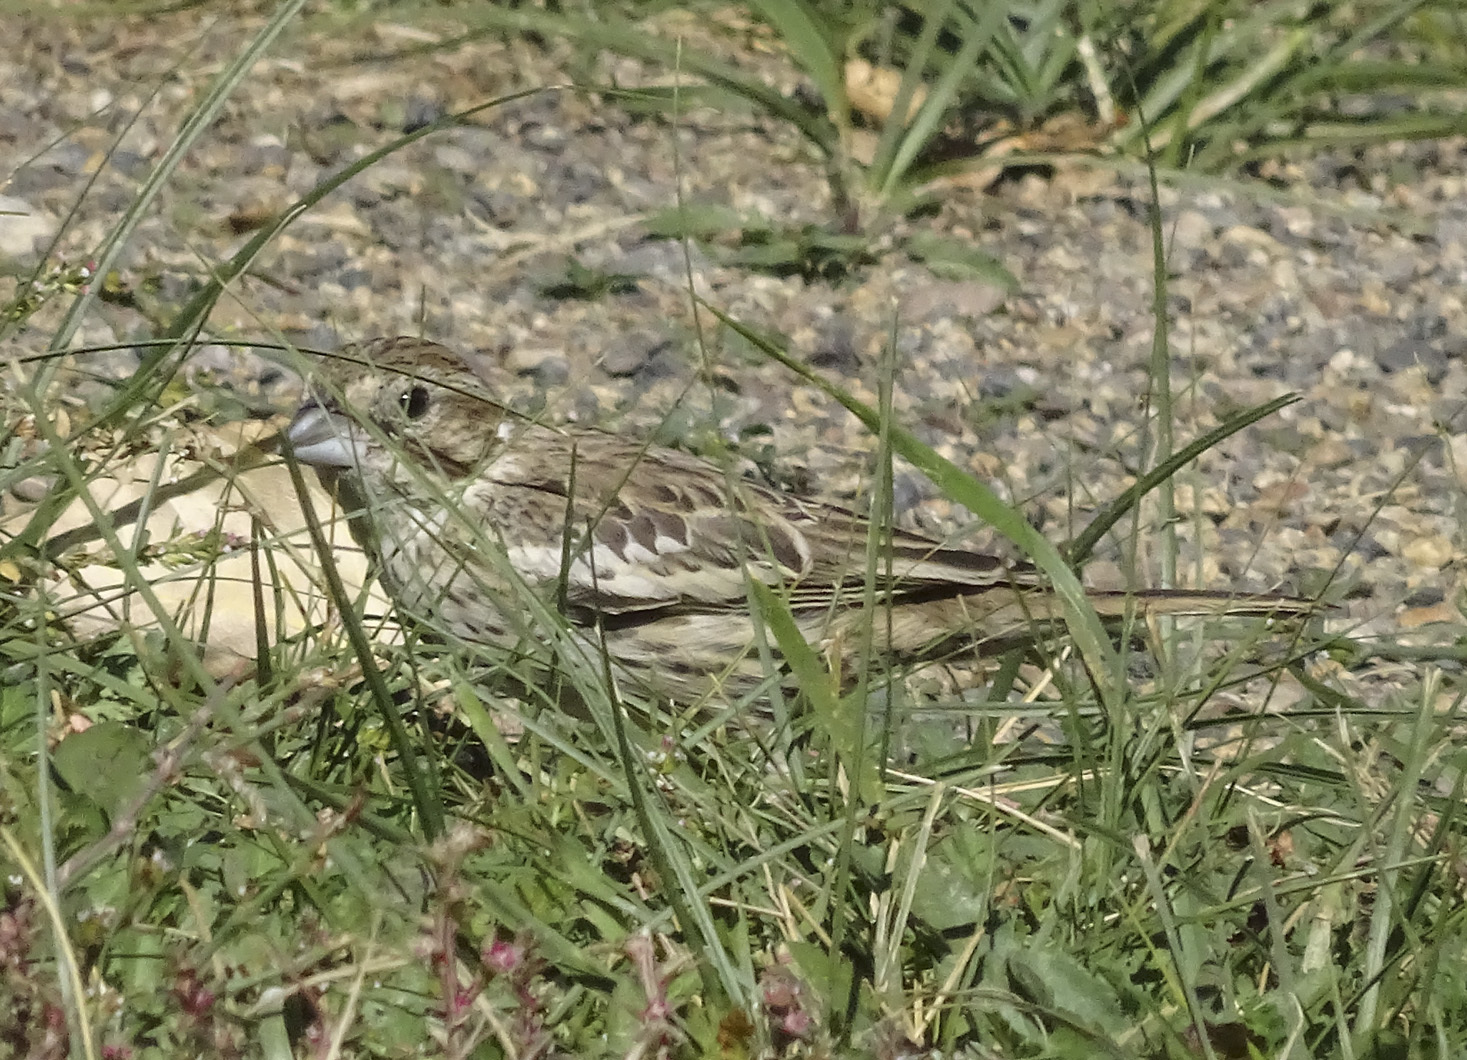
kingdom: Animalia
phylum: Chordata
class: Aves
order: Passeriformes
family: Passerellidae
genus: Calamospiza
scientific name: Calamospiza melanocorys
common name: Lark bunting
